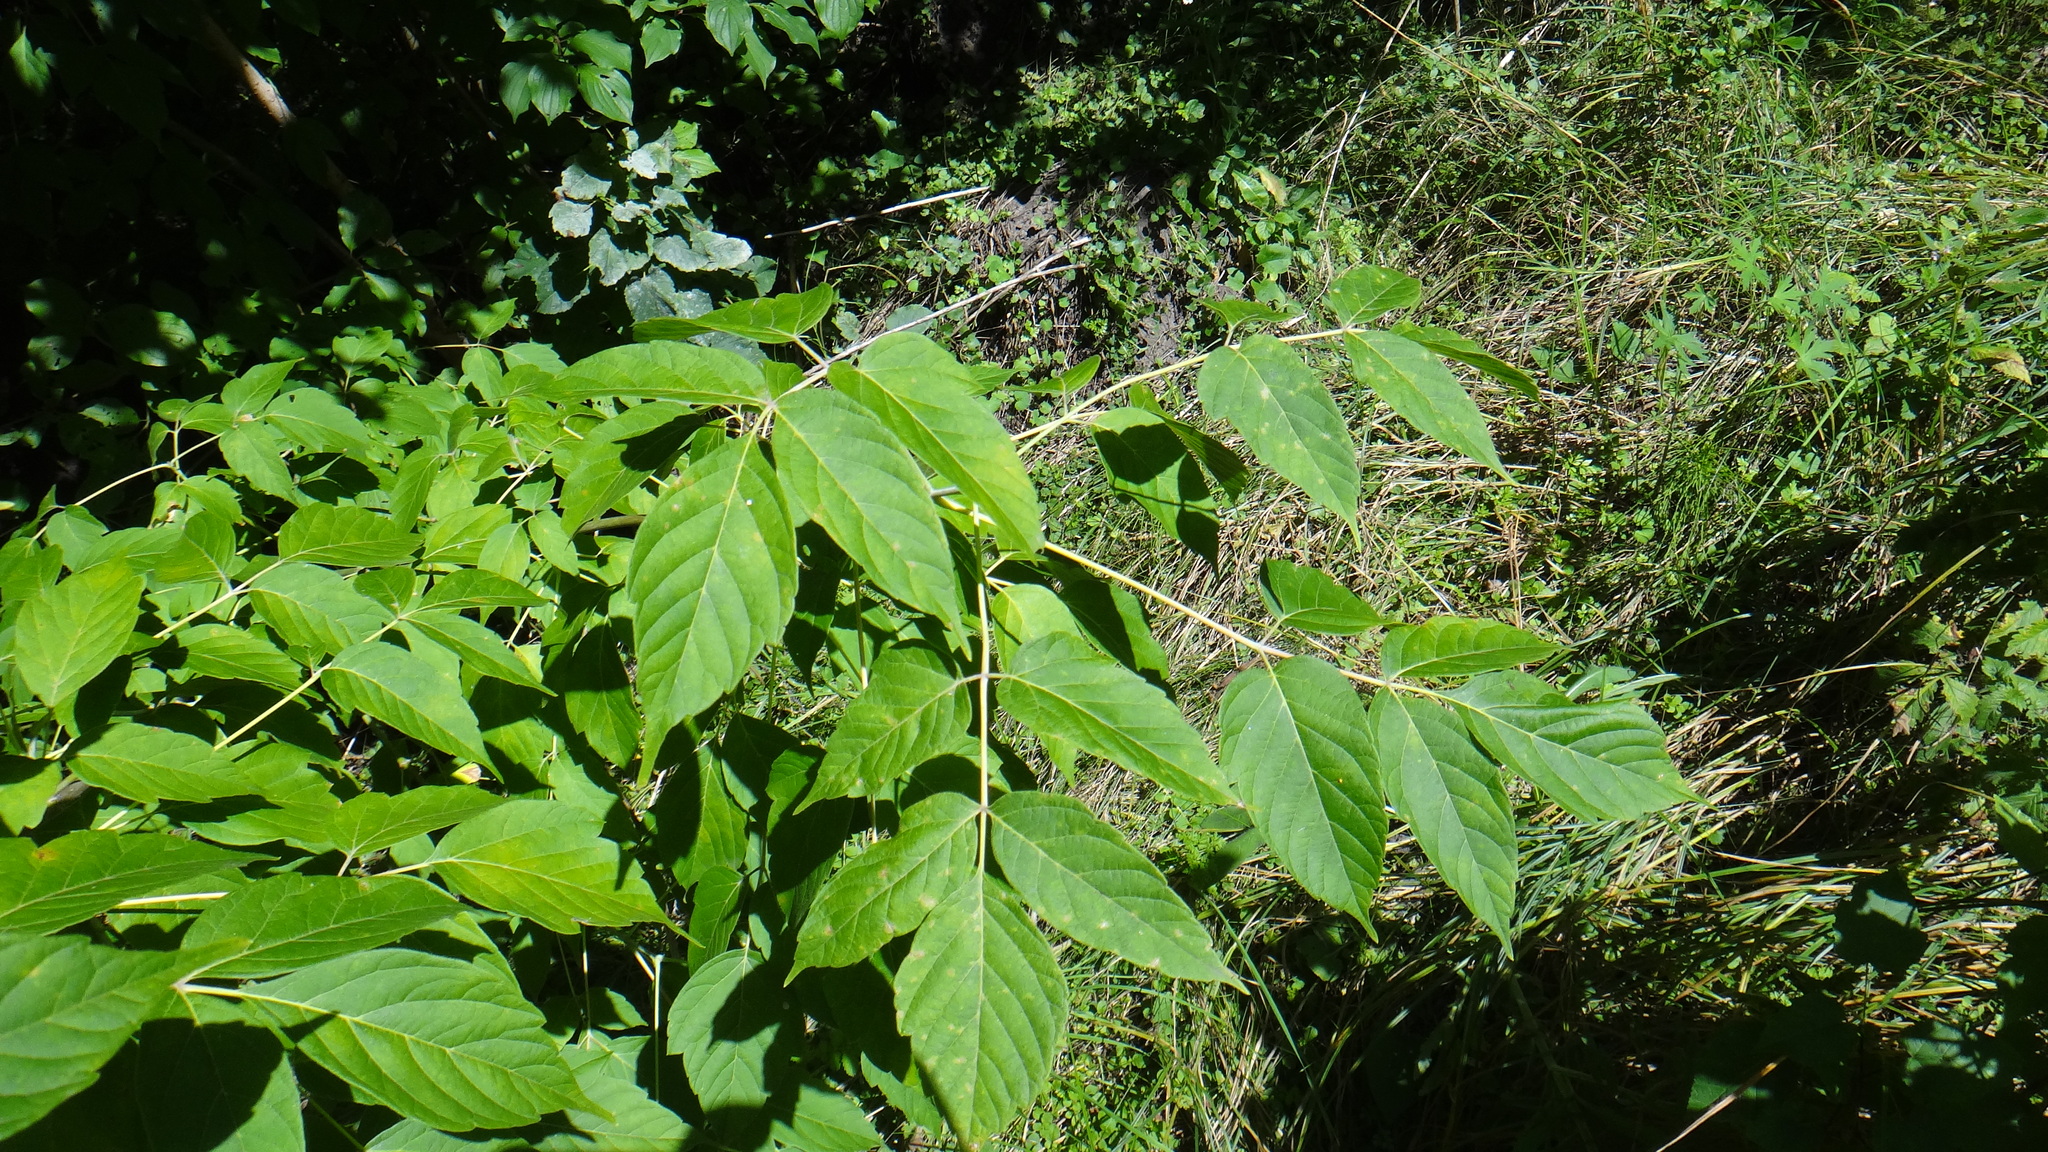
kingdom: Plantae
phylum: Tracheophyta
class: Magnoliopsida
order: Sapindales
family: Sapindaceae
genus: Acer
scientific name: Acer negundo
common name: Ashleaf maple
